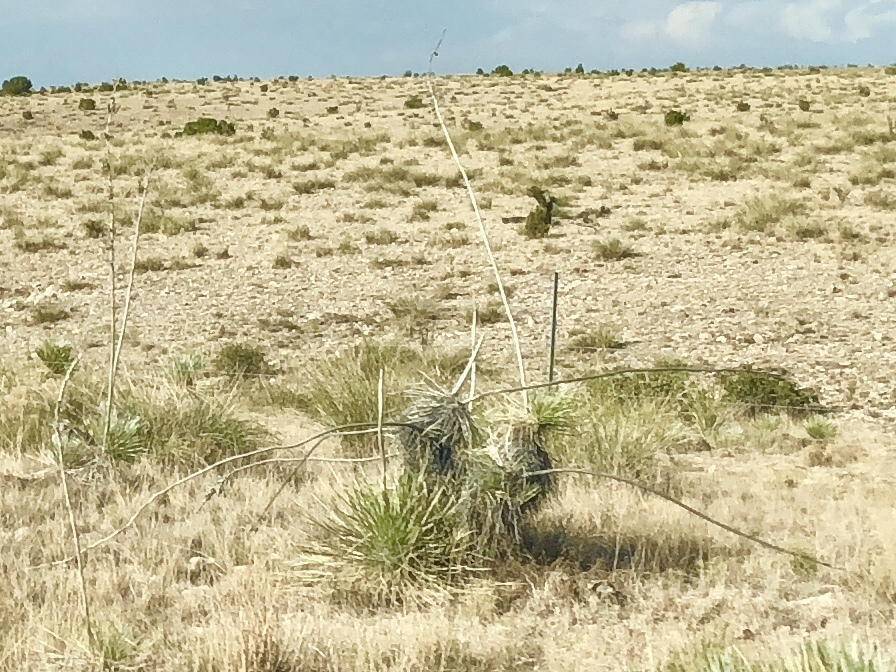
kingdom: Plantae
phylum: Tracheophyta
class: Liliopsida
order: Asparagales
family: Asparagaceae
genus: Yucca
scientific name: Yucca elata
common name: Palmella
